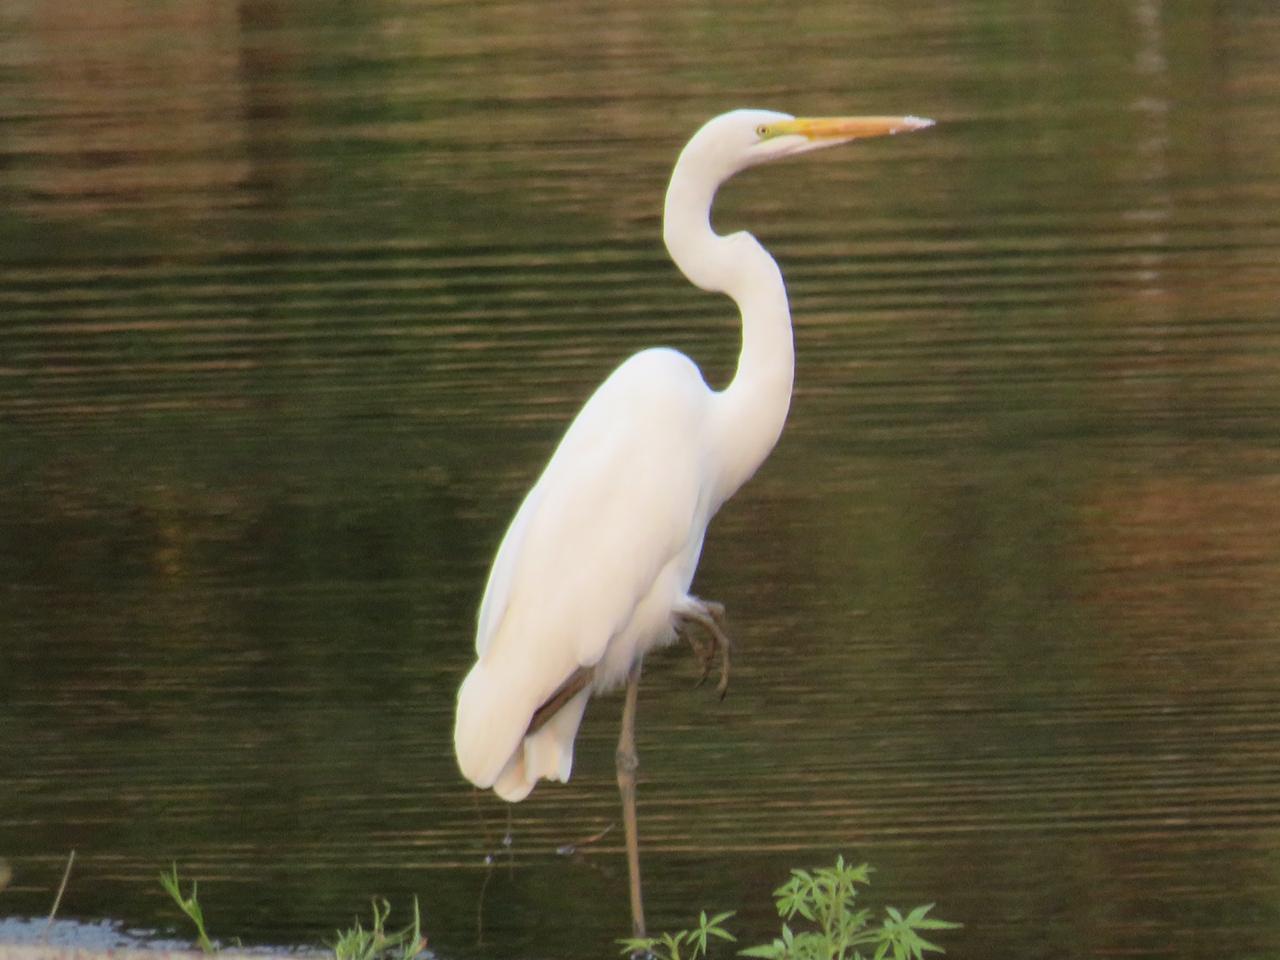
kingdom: Animalia
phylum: Chordata
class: Aves
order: Pelecaniformes
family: Ardeidae
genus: Ardea
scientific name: Ardea alba
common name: Great egret
